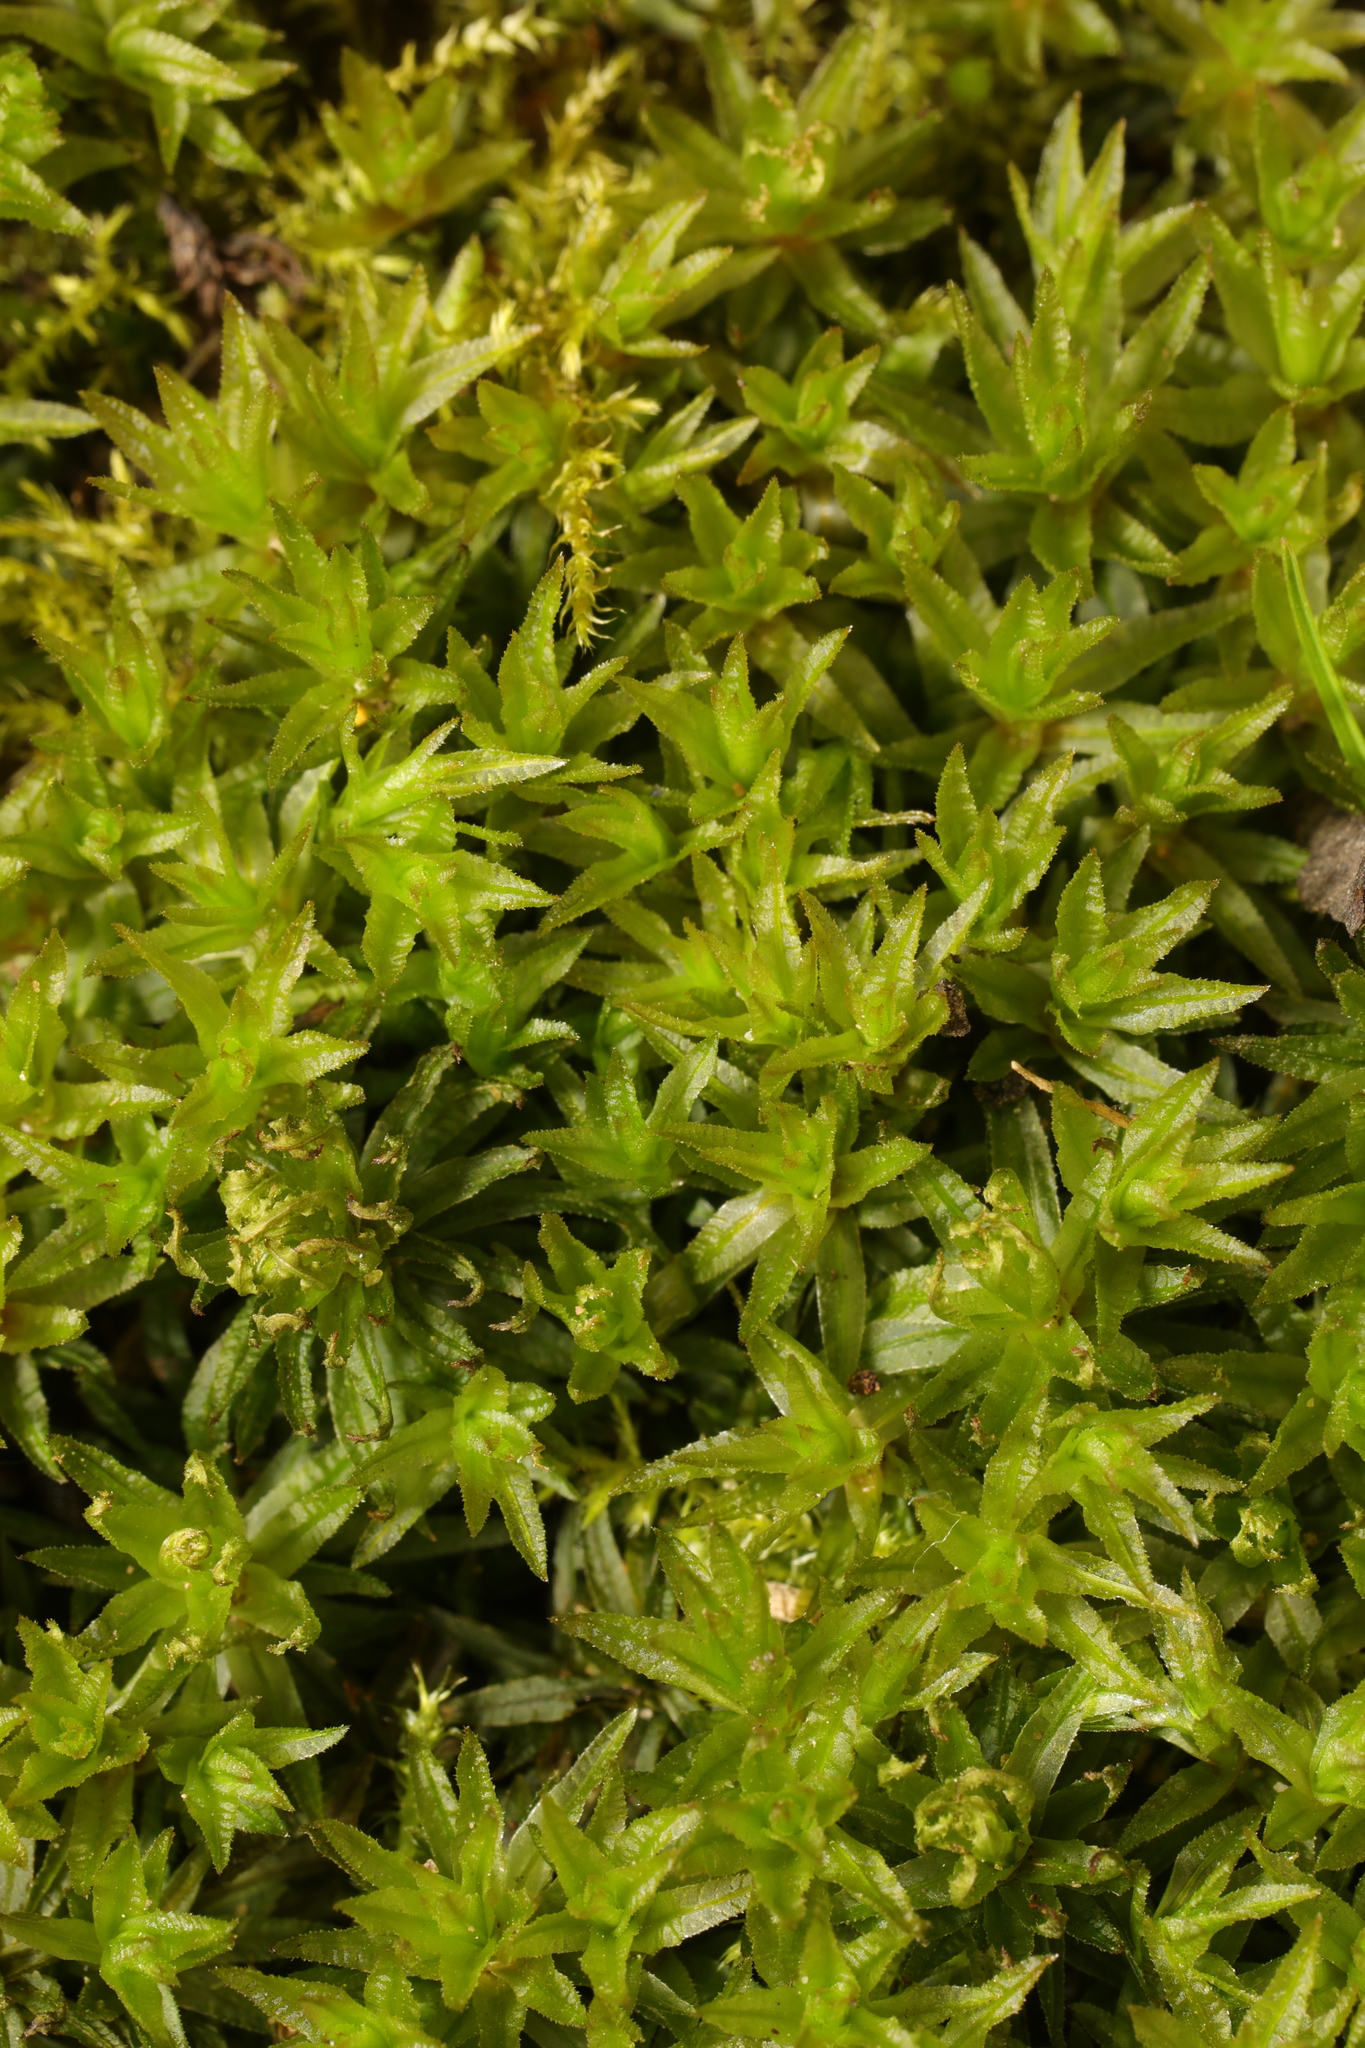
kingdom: Plantae
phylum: Bryophyta
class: Polytrichopsida
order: Polytrichales
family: Polytrichaceae
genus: Atrichum
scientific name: Atrichum undulatum
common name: Common smoothcap
